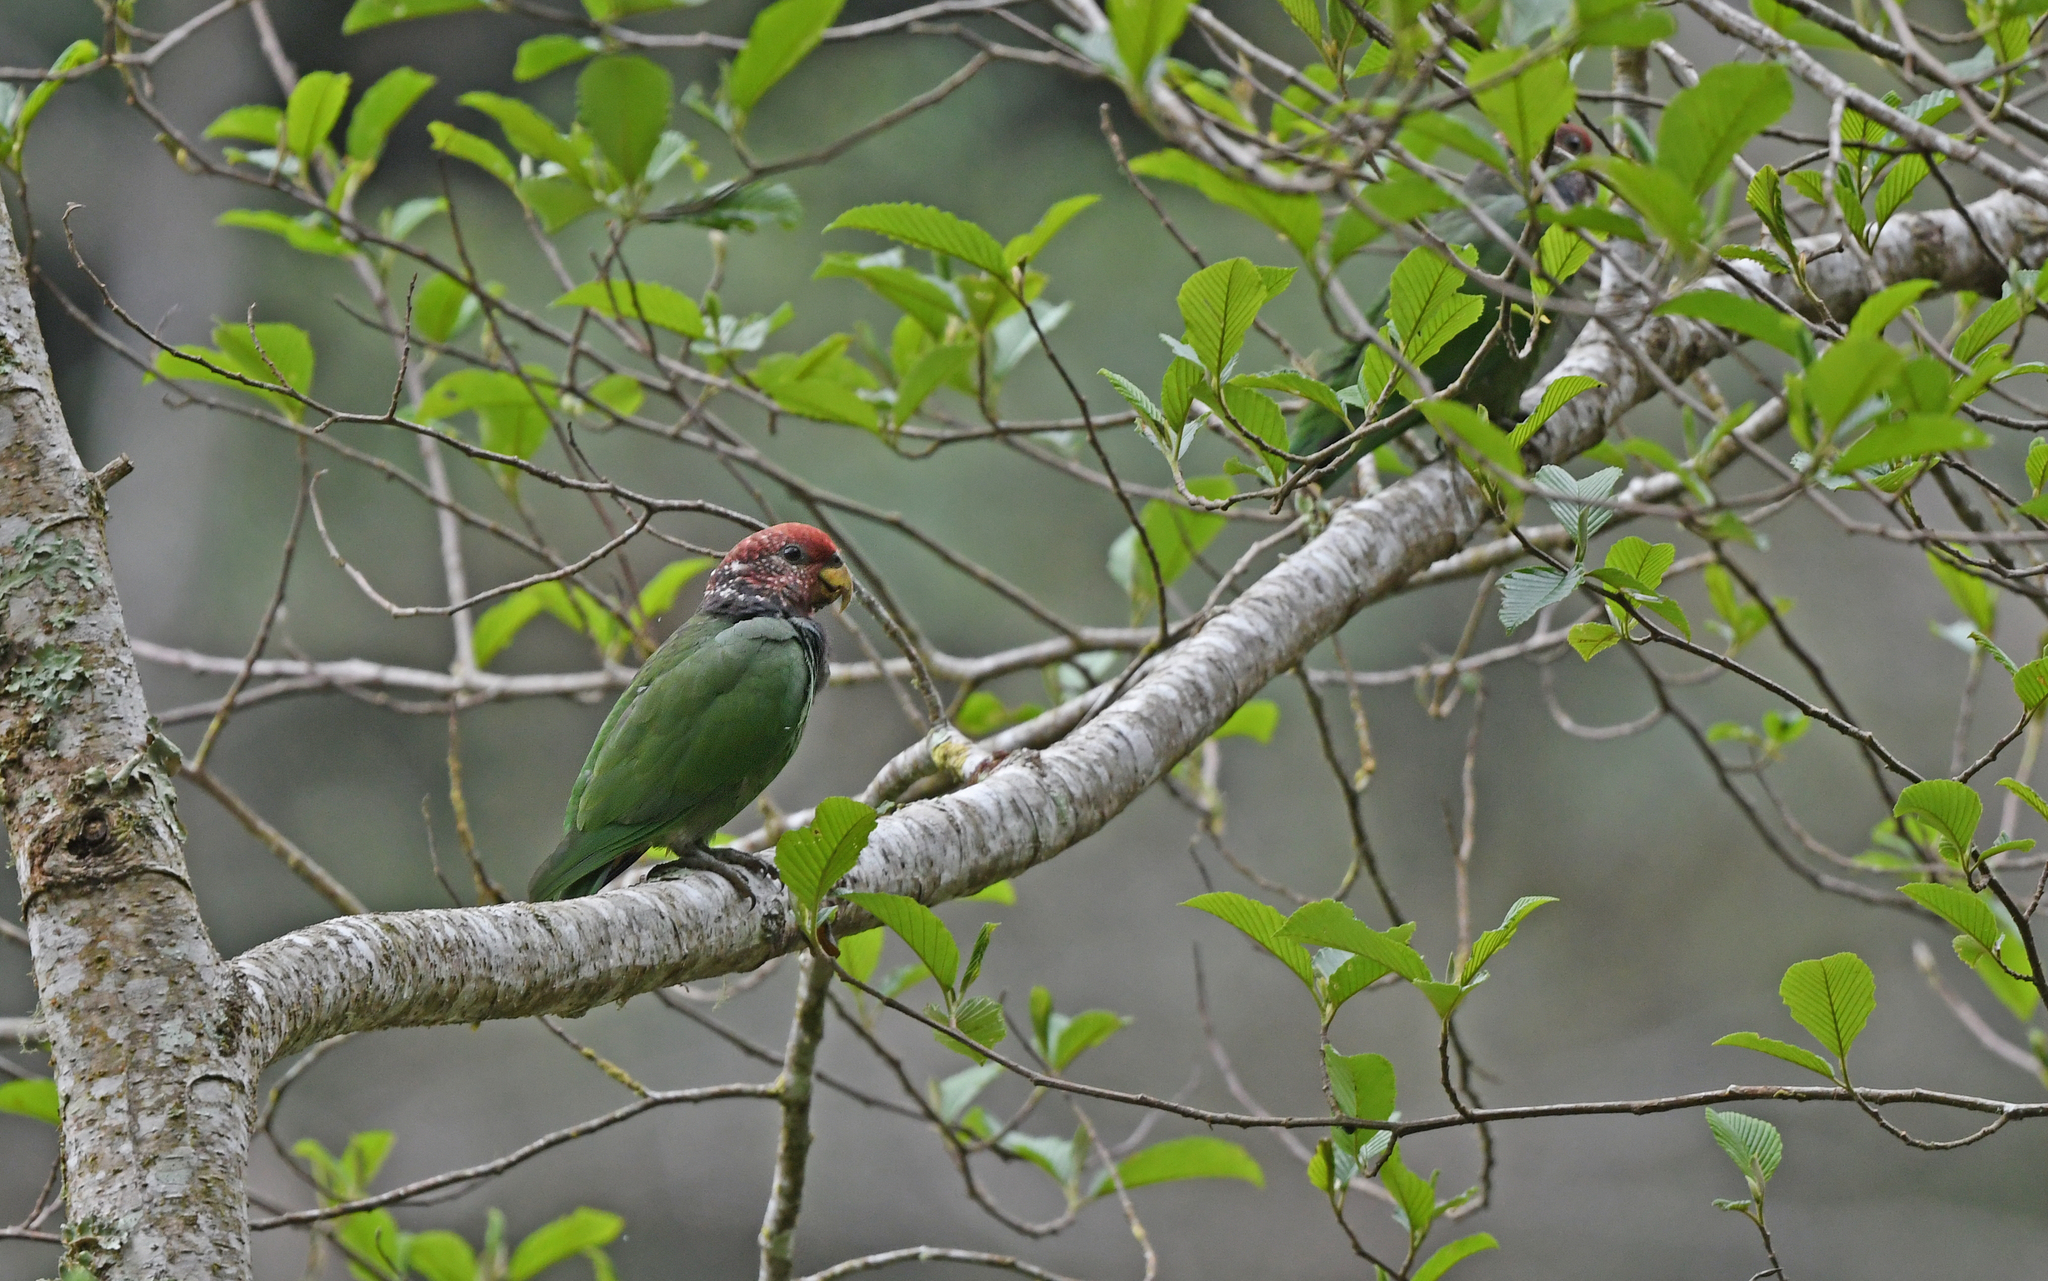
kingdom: Animalia
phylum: Chordata
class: Aves
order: Psittaciformes
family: Psittacidae
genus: Pionus
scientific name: Pionus tumultuosus
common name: Plum-crowned parrot
